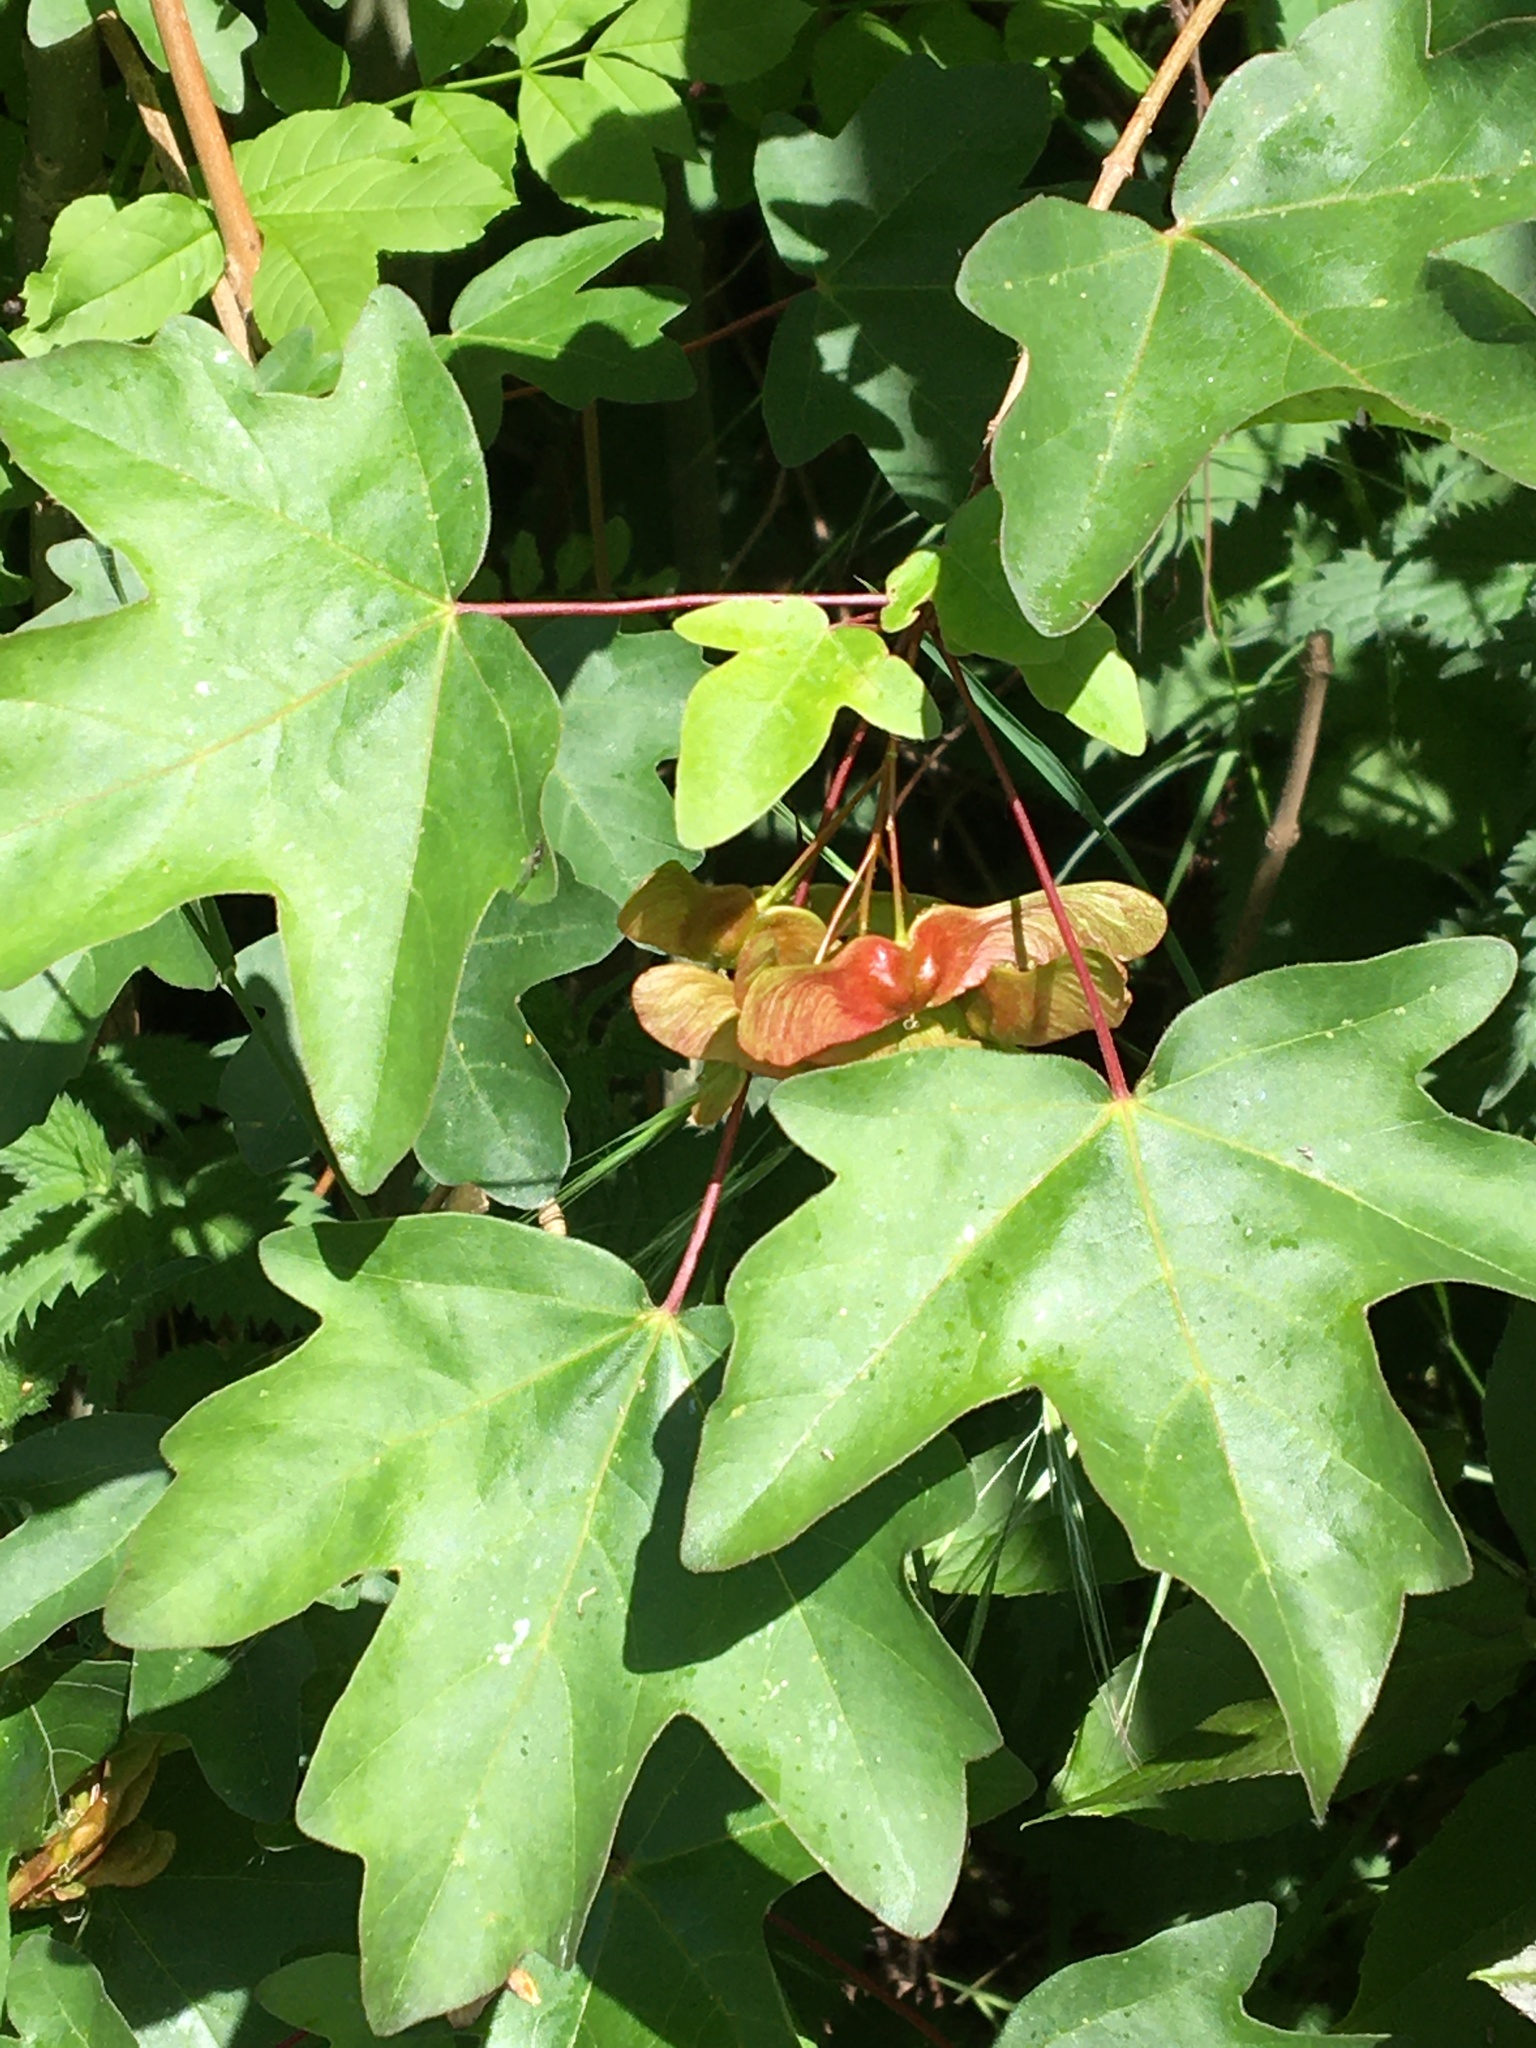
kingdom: Plantae
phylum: Tracheophyta
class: Magnoliopsida
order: Sapindales
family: Sapindaceae
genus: Acer
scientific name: Acer campestre
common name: Field maple
